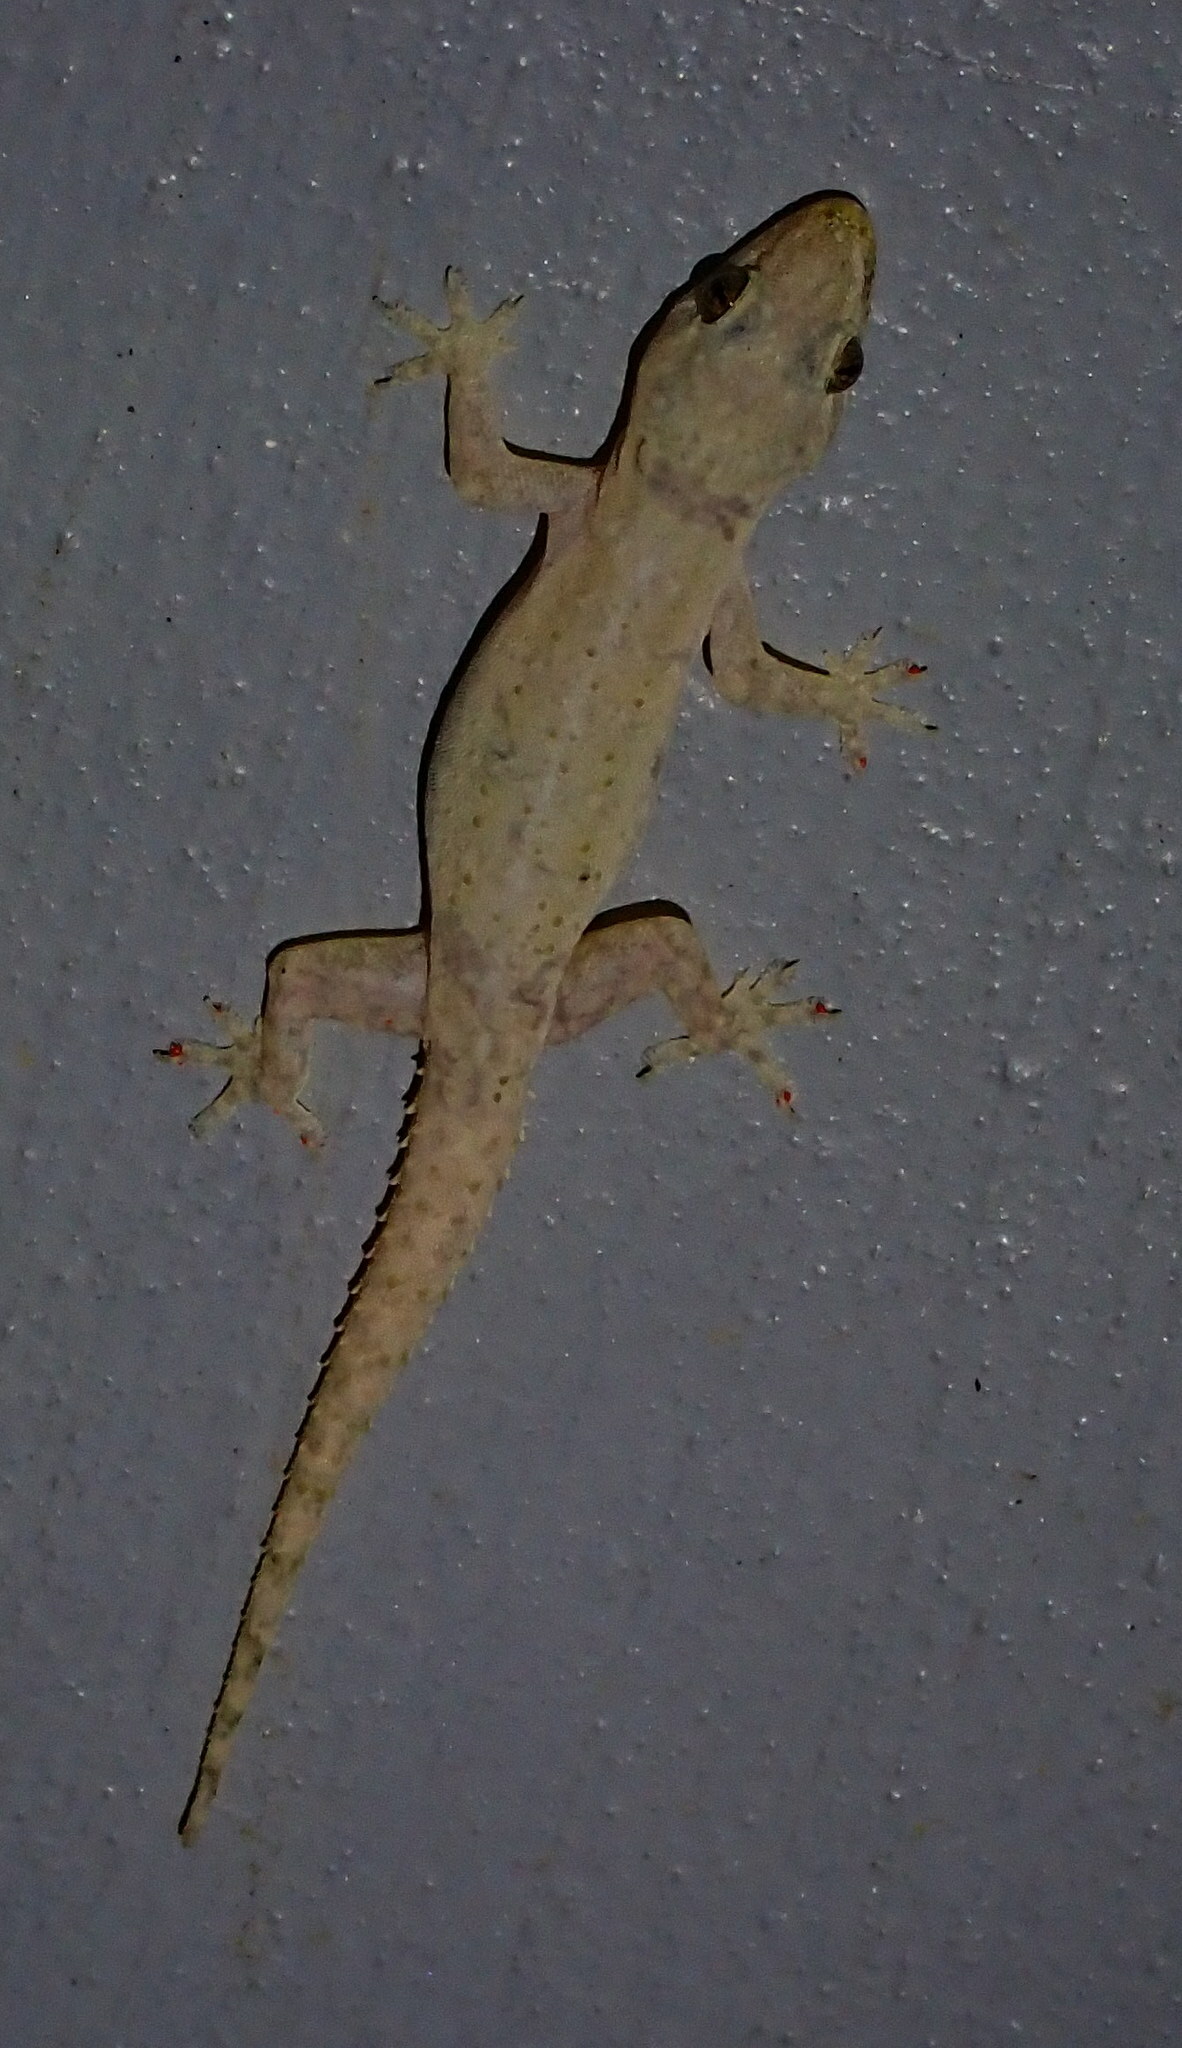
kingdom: Animalia
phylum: Chordata
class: Squamata
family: Gekkonidae
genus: Hemidactylus
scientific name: Hemidactylus frenatus
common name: Common house gecko
